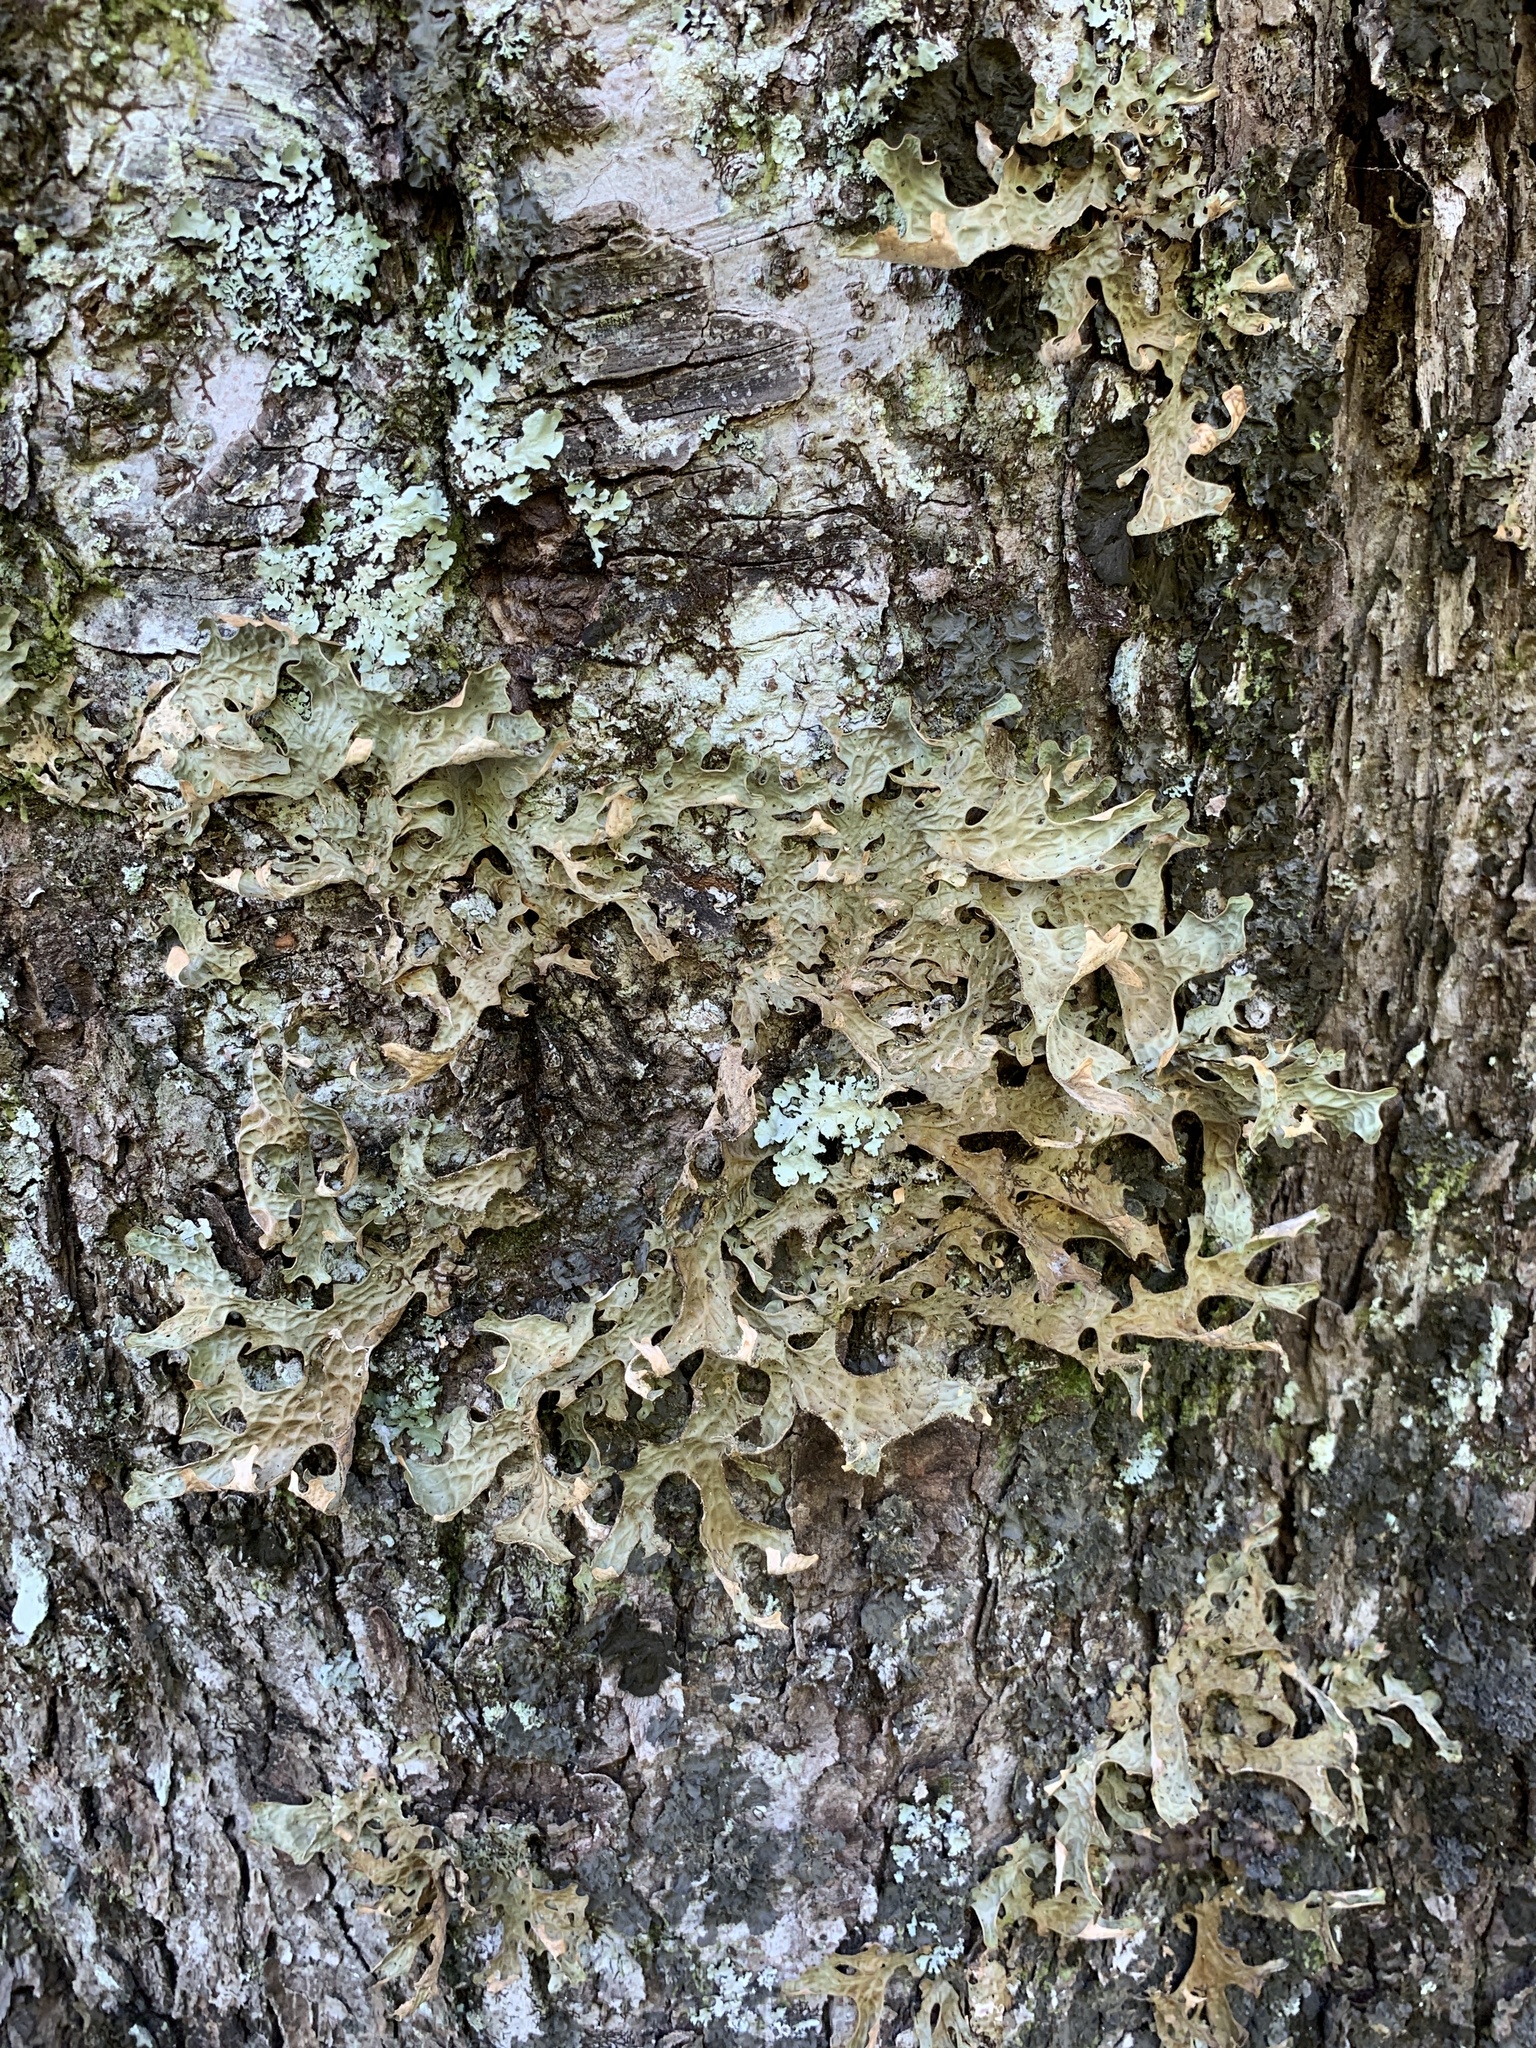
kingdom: Fungi
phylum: Ascomycota
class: Lecanoromycetes
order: Peltigerales
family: Lobariaceae
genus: Lobaria
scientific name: Lobaria pulmonaria
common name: Lungwort
